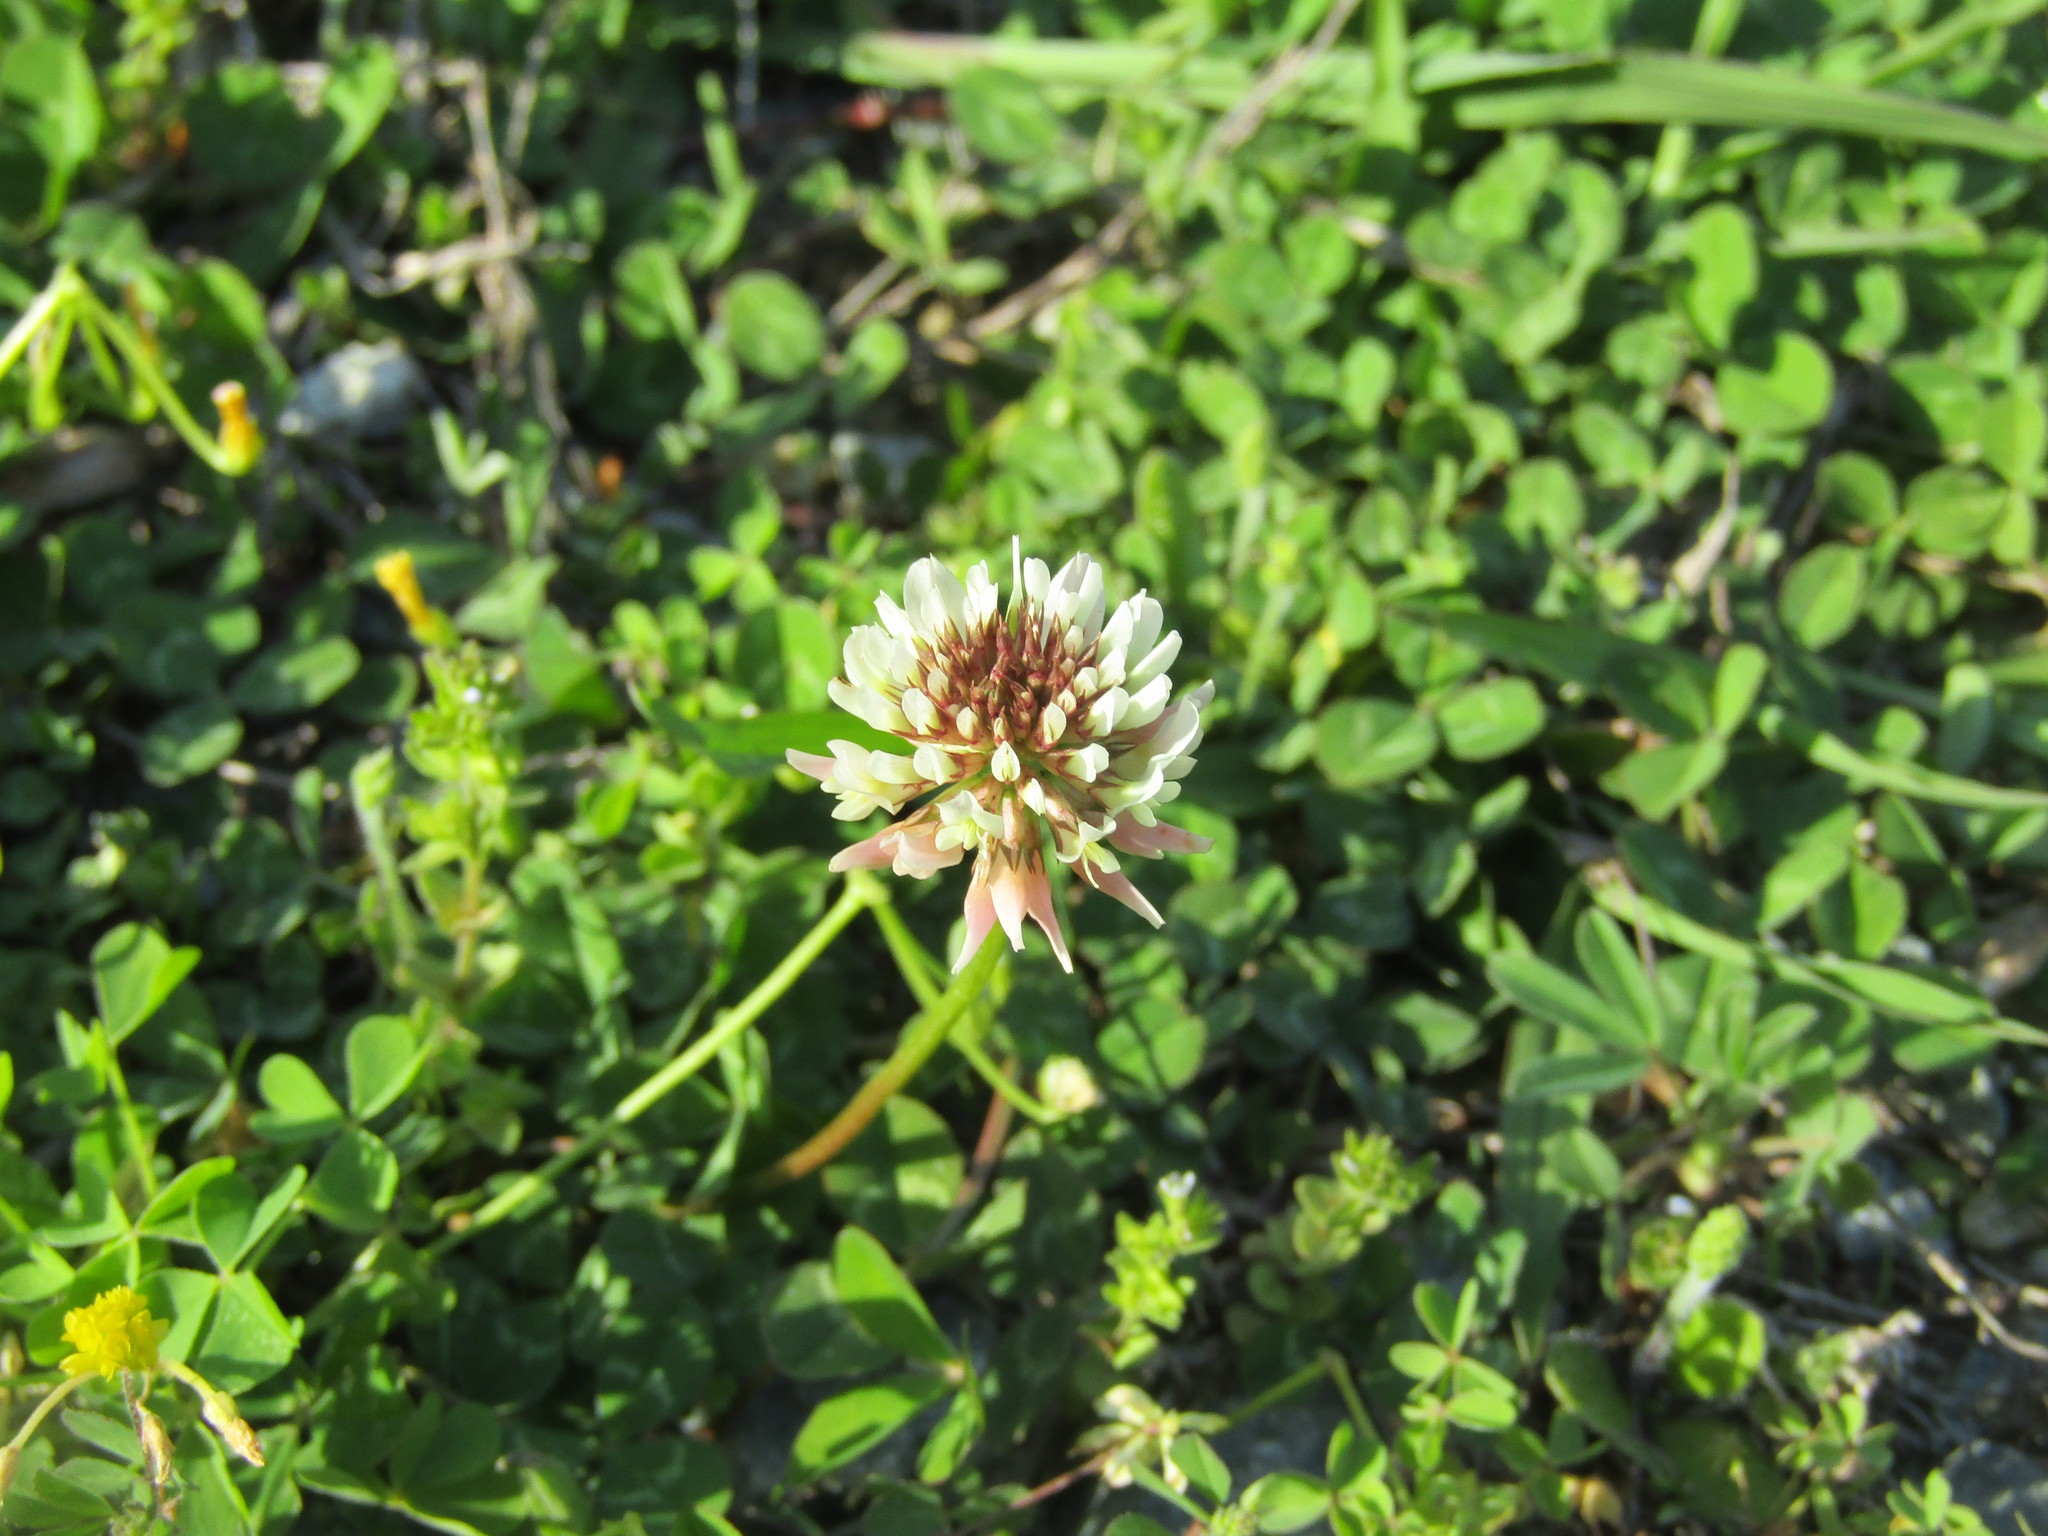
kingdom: Plantae
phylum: Tracheophyta
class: Magnoliopsida
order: Fabales
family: Fabaceae
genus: Trifolium
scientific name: Trifolium repens
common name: White clover
